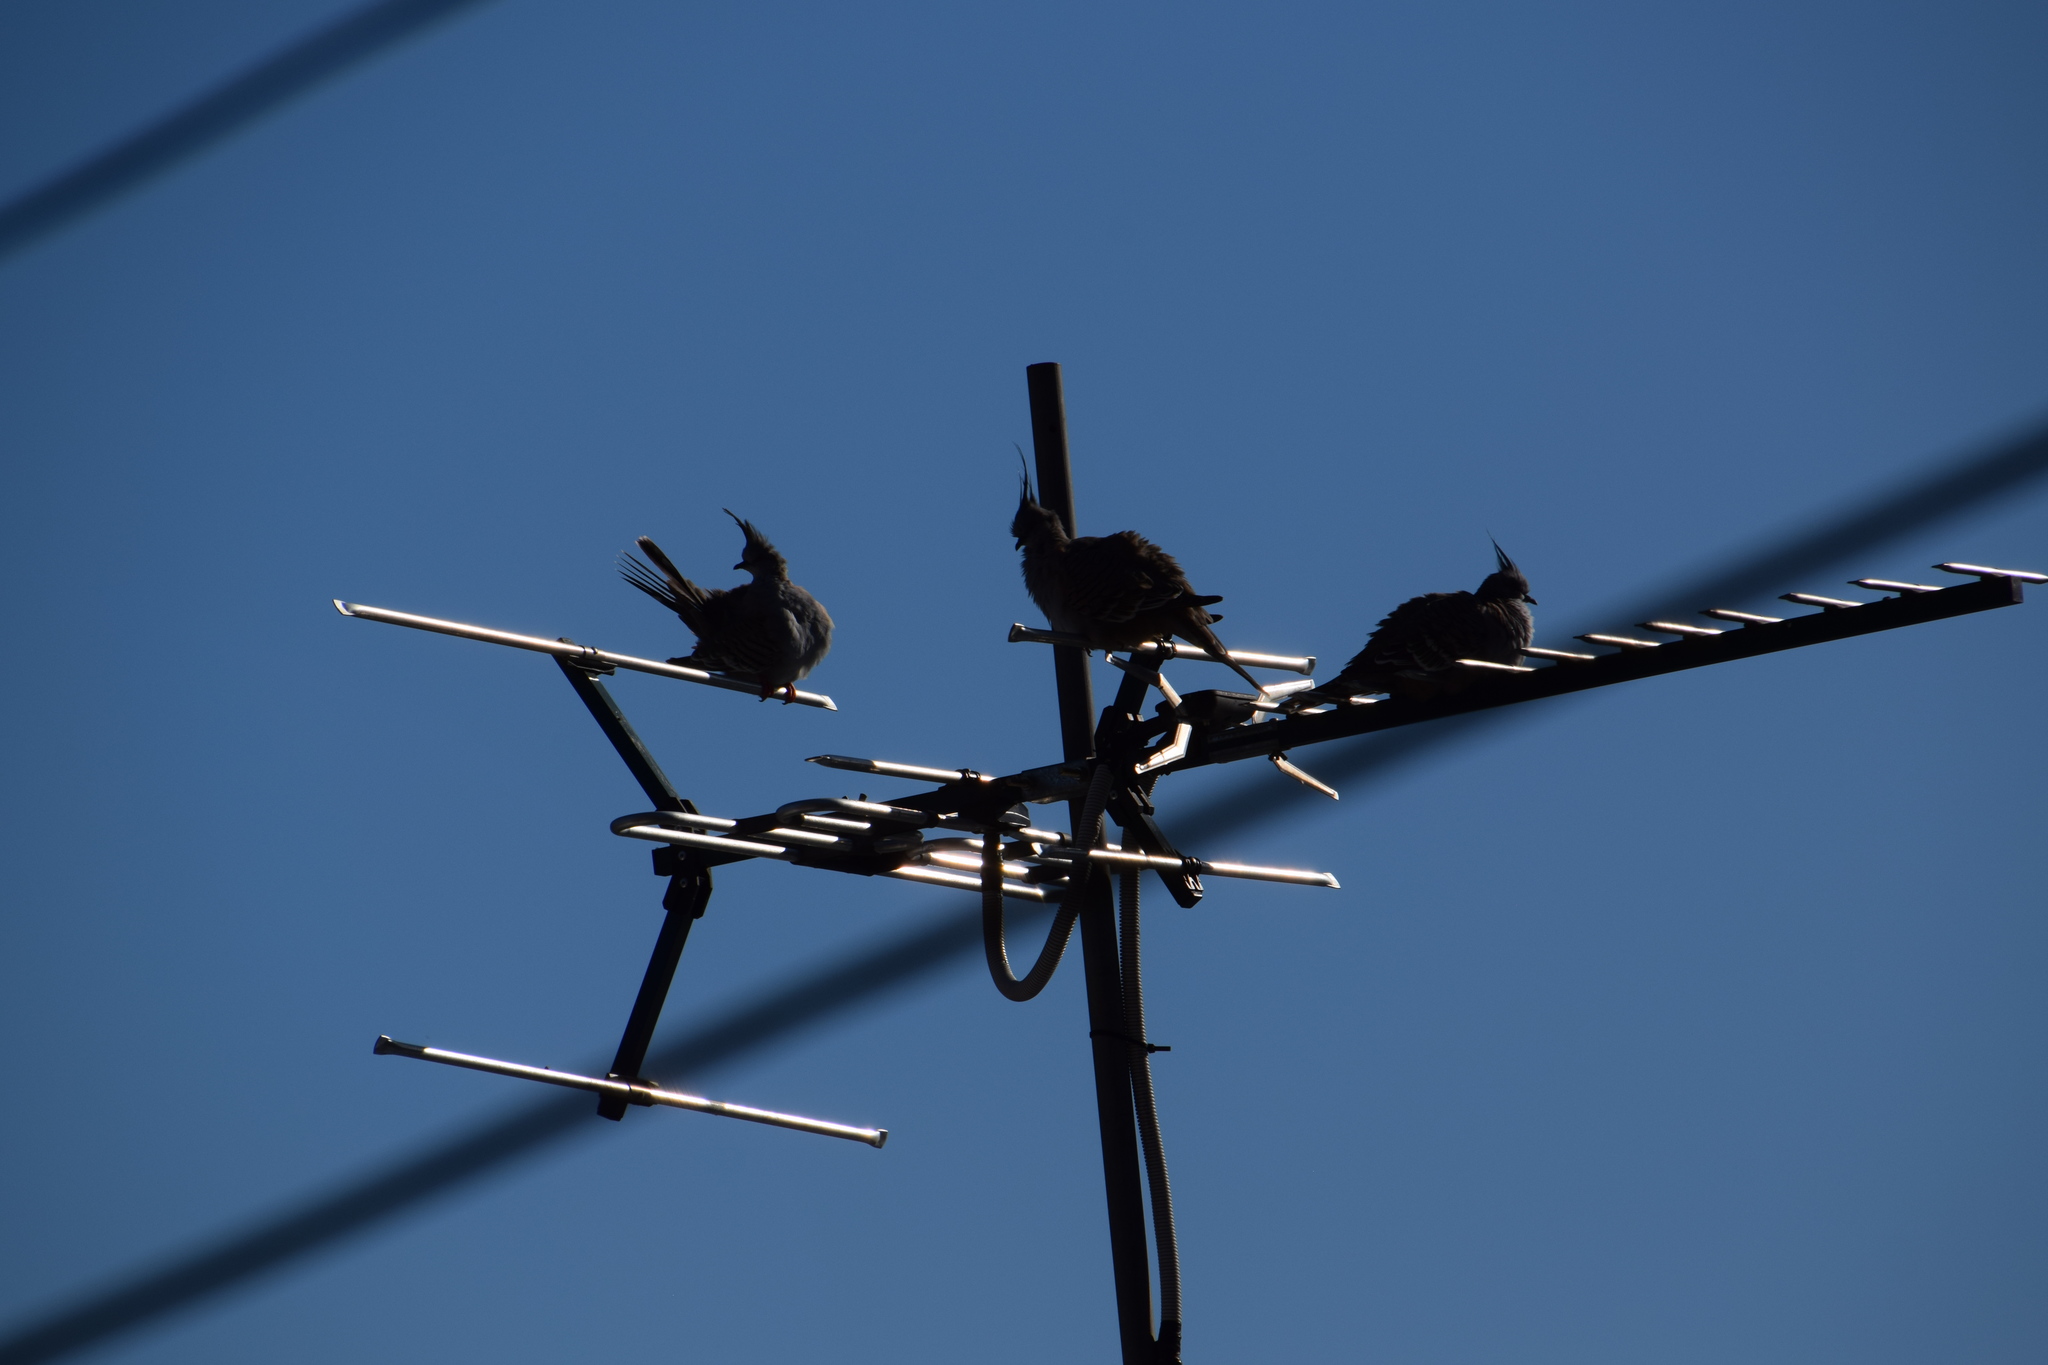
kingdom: Animalia
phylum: Chordata
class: Aves
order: Columbiformes
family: Columbidae
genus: Ocyphaps
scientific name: Ocyphaps lophotes
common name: Crested pigeon
